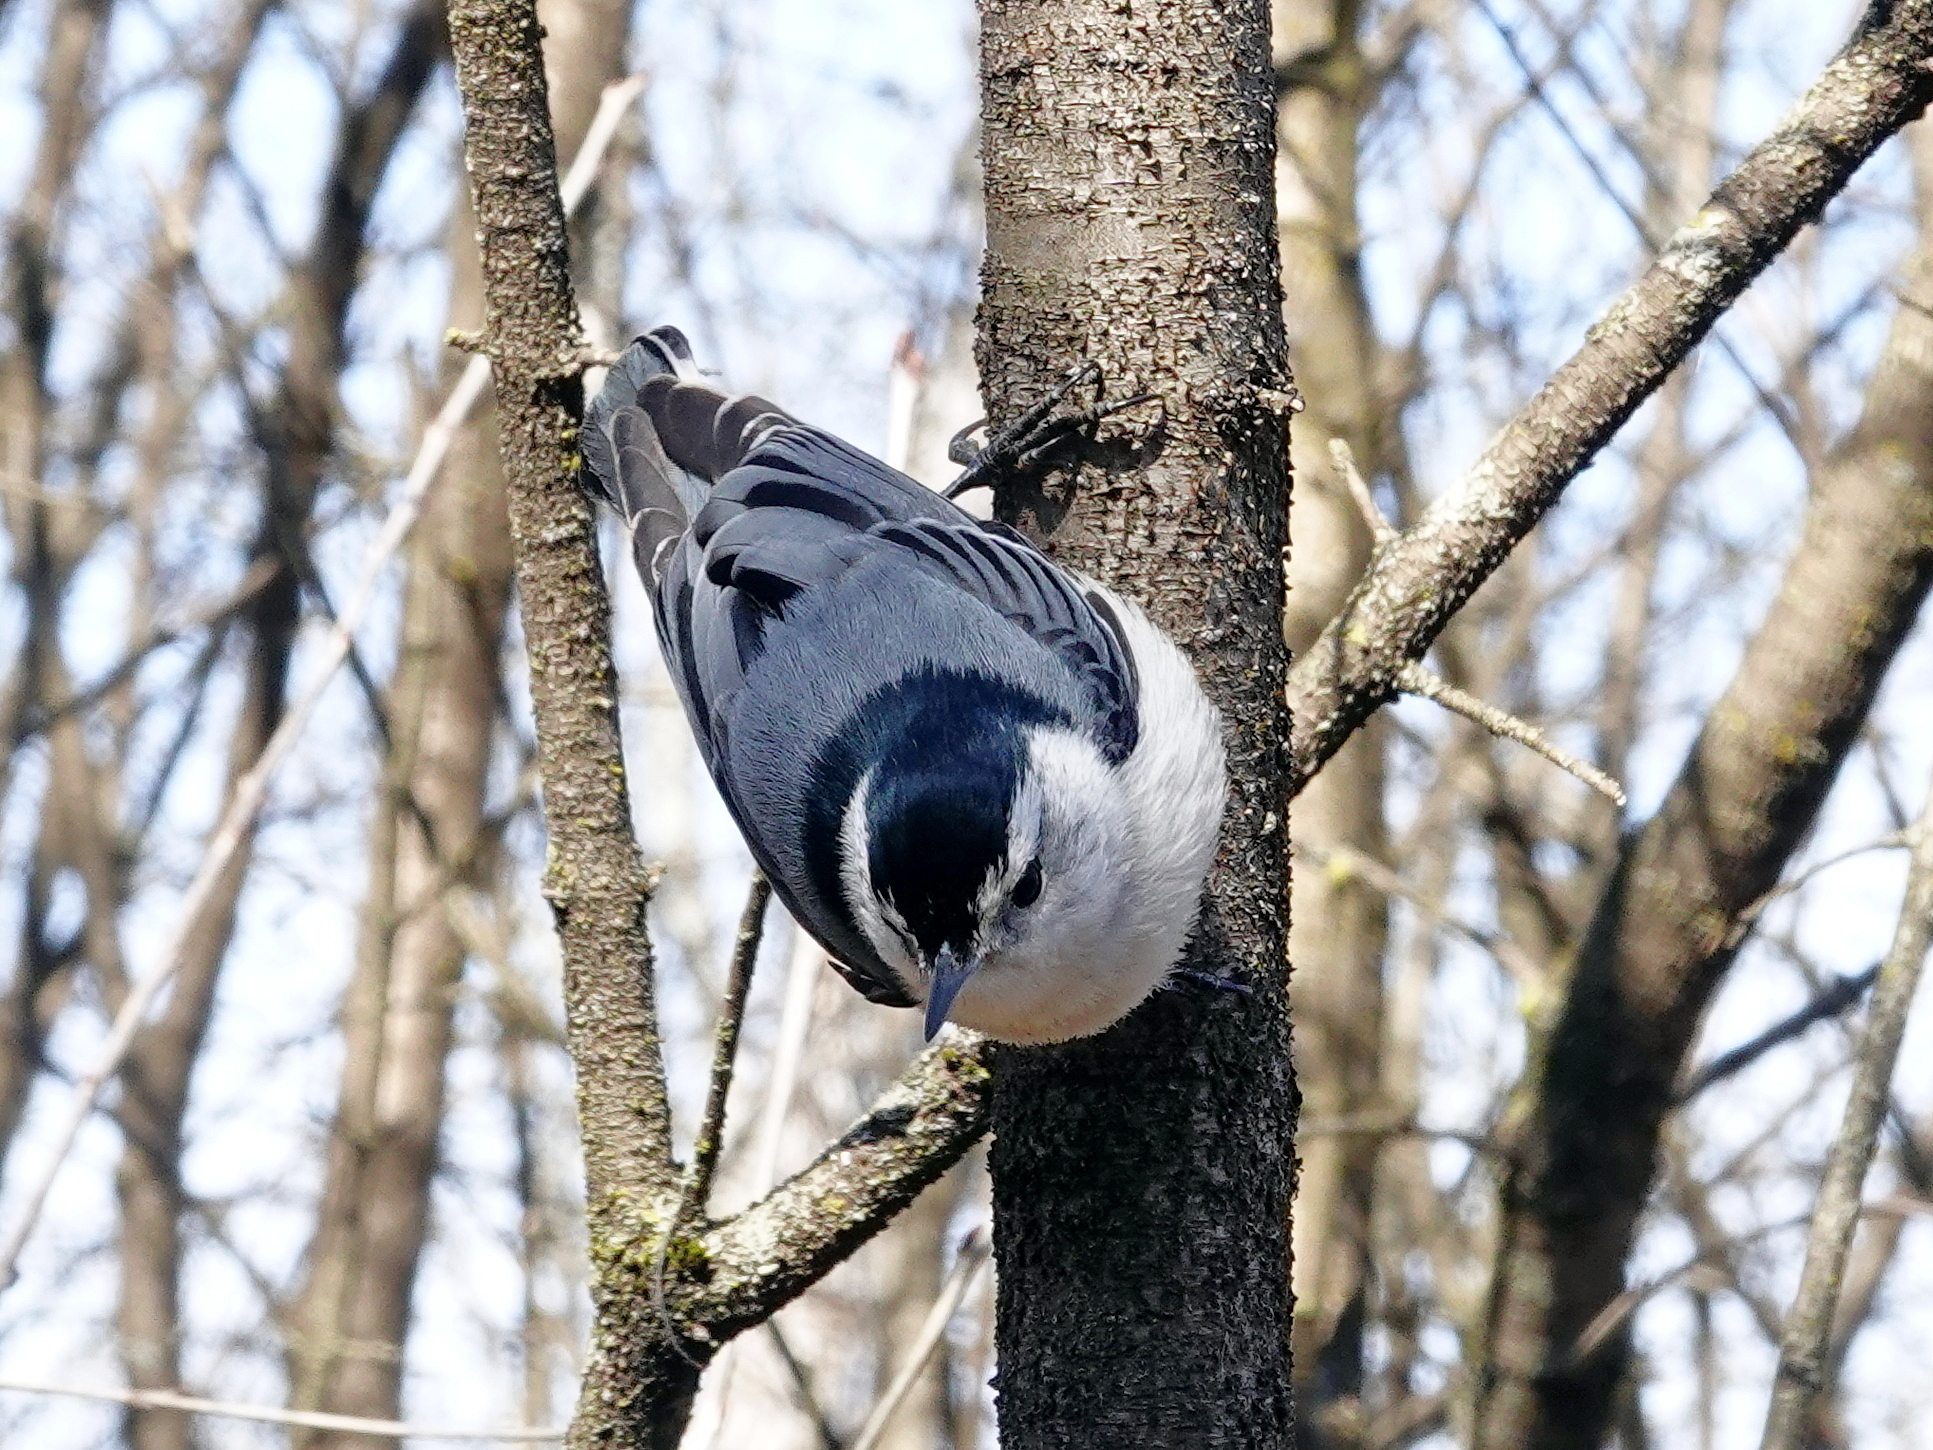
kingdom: Animalia
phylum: Chordata
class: Aves
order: Passeriformes
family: Sittidae
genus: Sitta
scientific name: Sitta carolinensis
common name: White-breasted nuthatch
